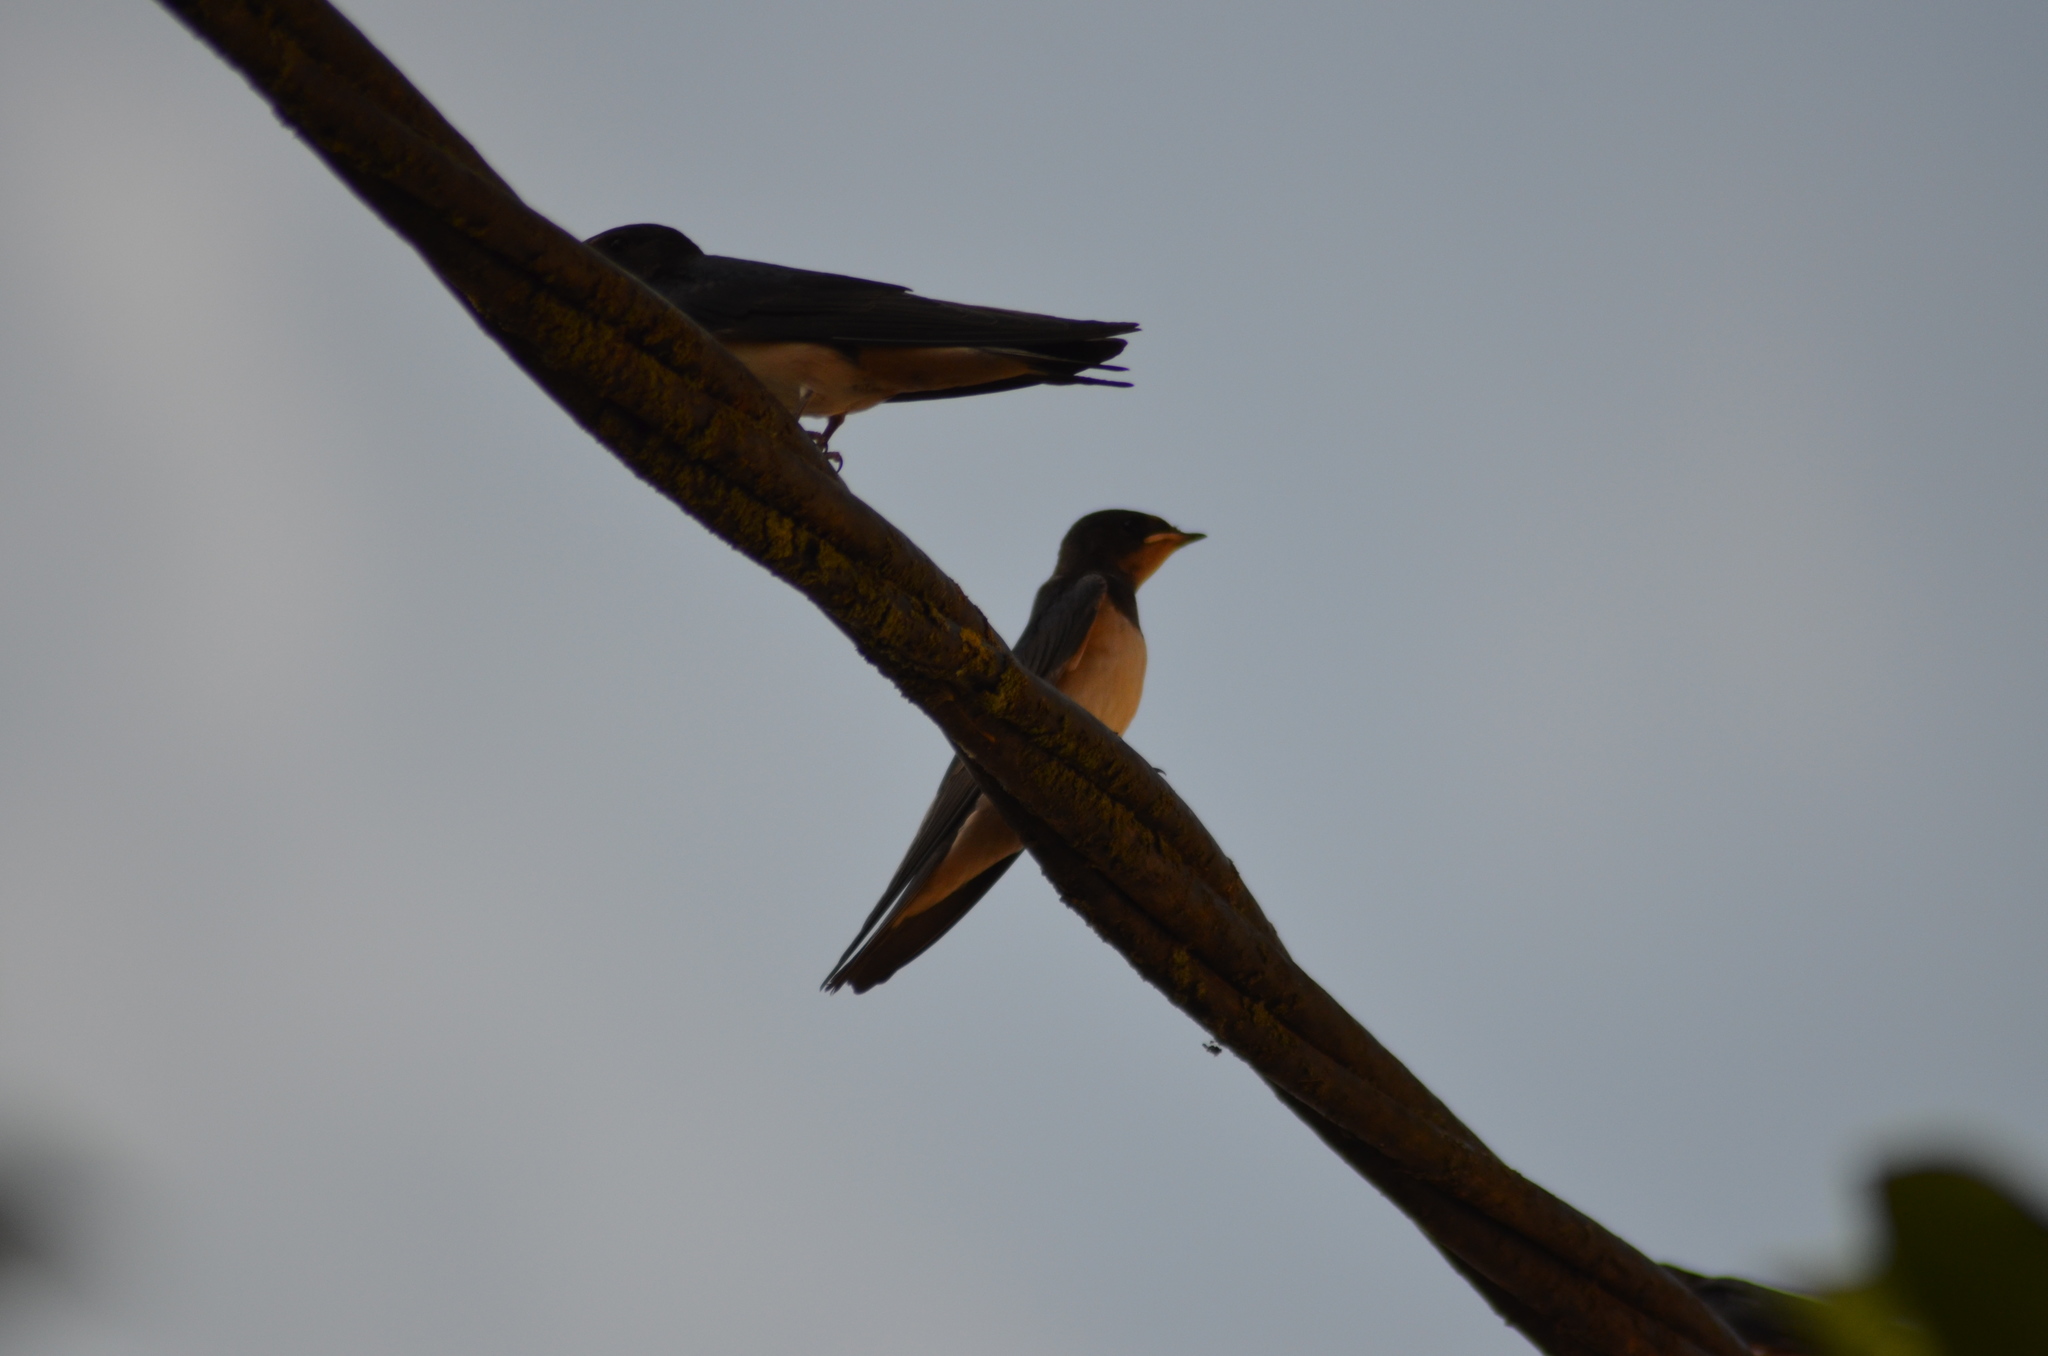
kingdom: Animalia
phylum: Chordata
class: Aves
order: Passeriformes
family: Hirundinidae
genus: Hirundo
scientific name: Hirundo rustica
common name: Barn swallow
